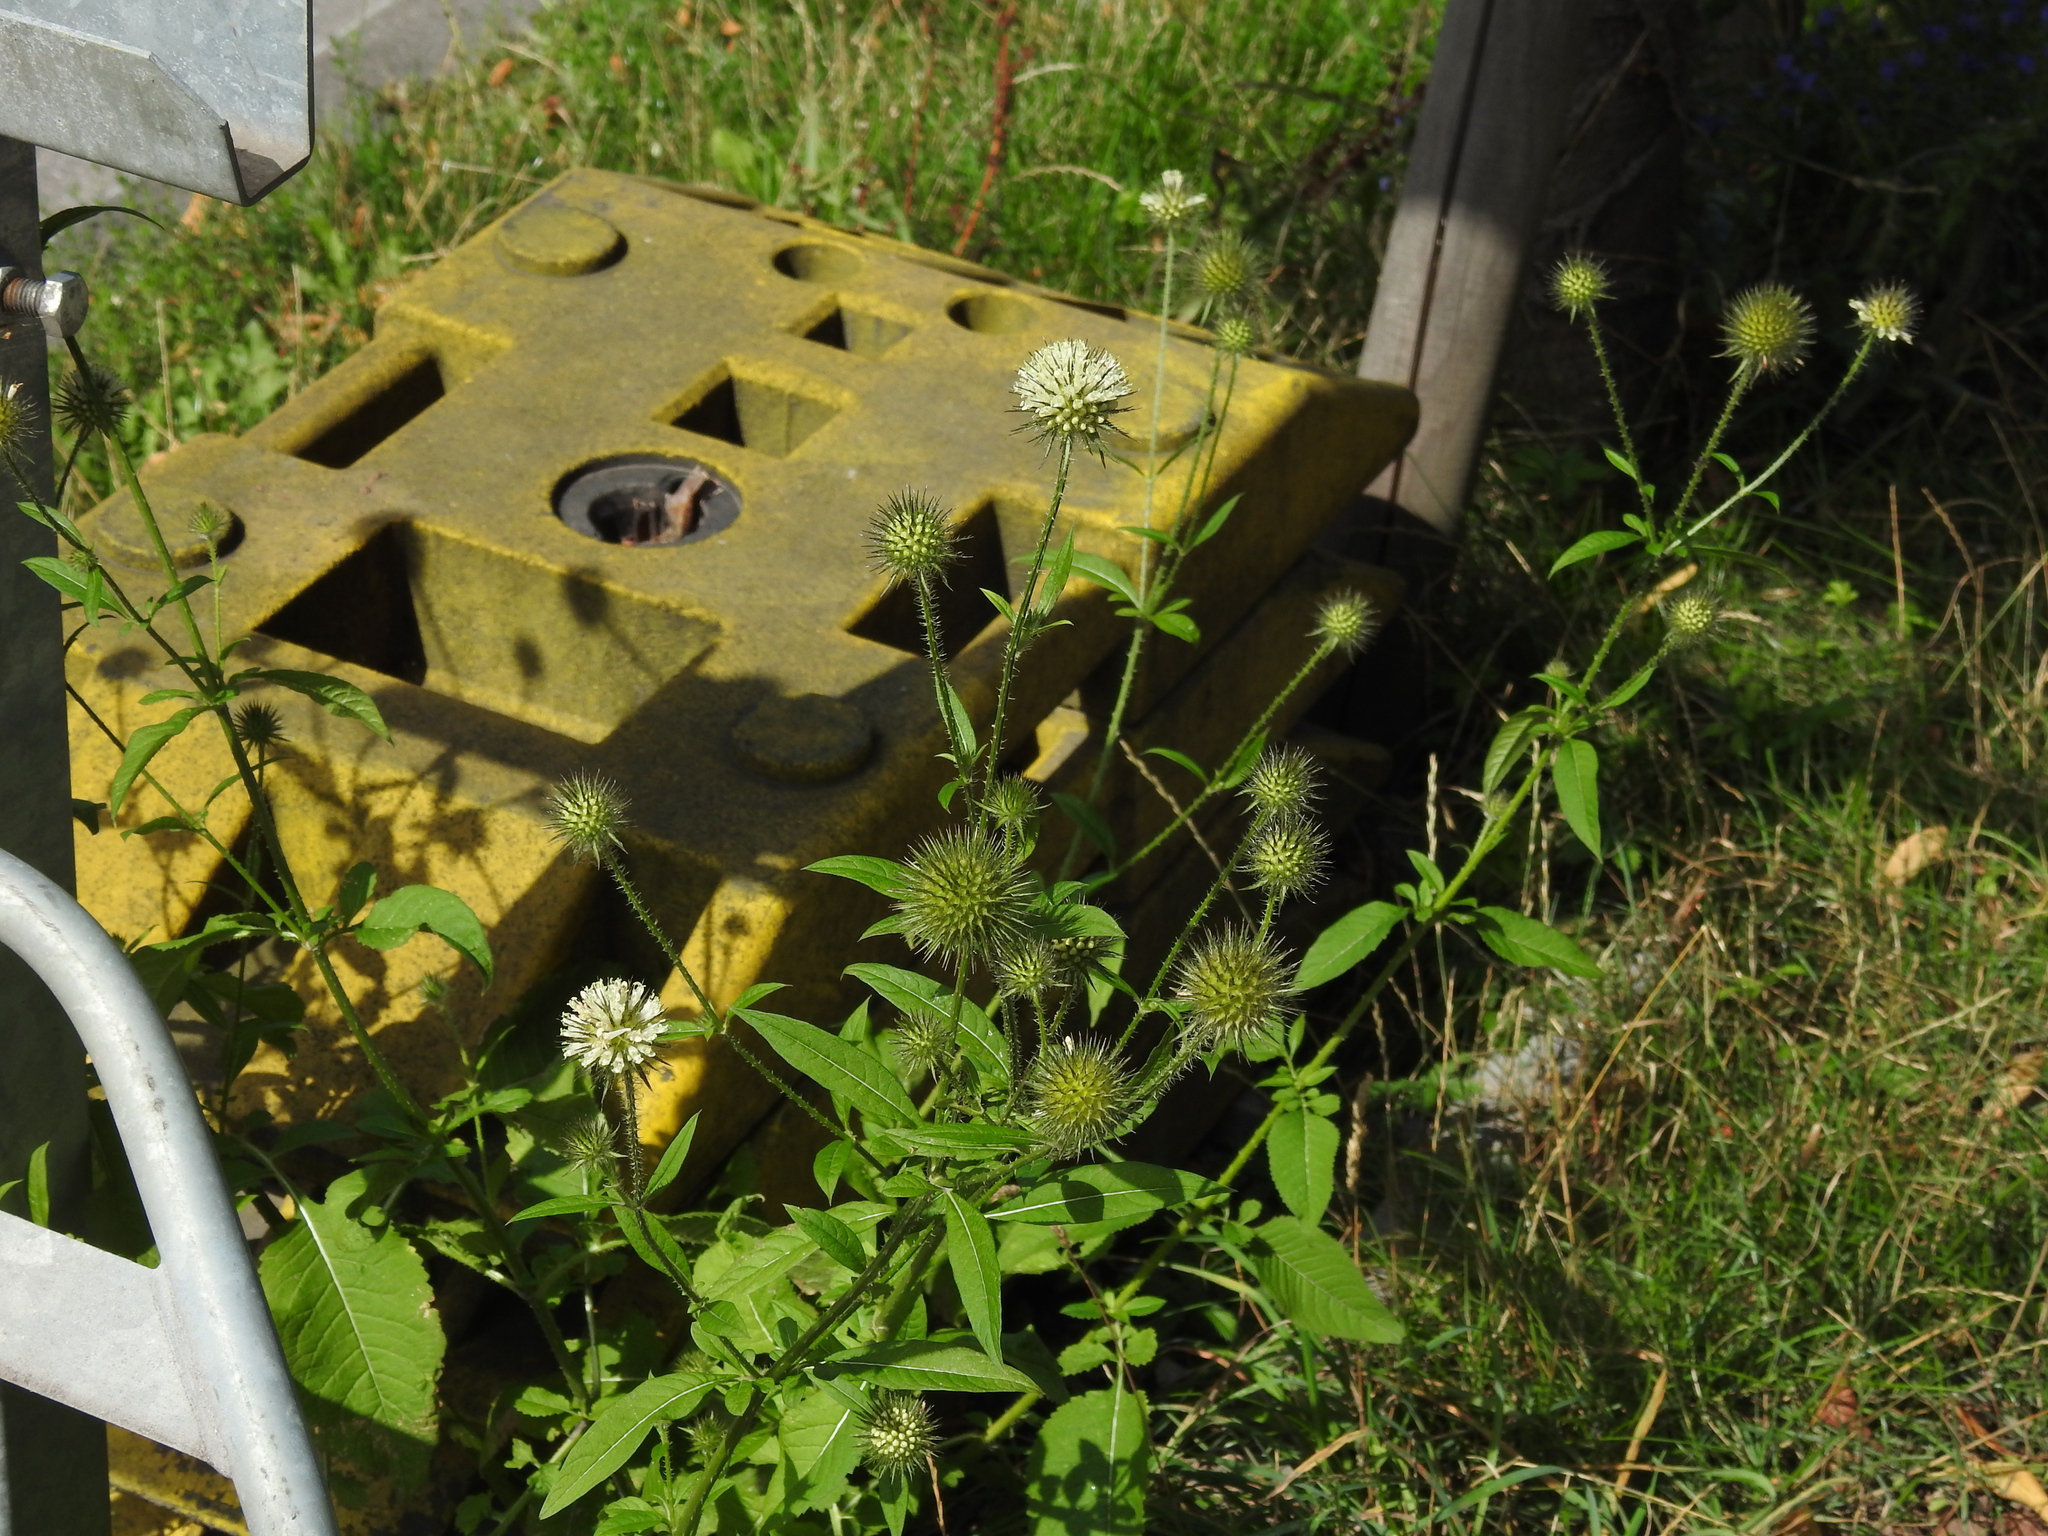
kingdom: Plantae
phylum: Tracheophyta
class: Magnoliopsida
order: Dipsacales
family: Caprifoliaceae
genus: Dipsacus
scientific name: Dipsacus strigosus
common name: Yellow-flowered teasel
